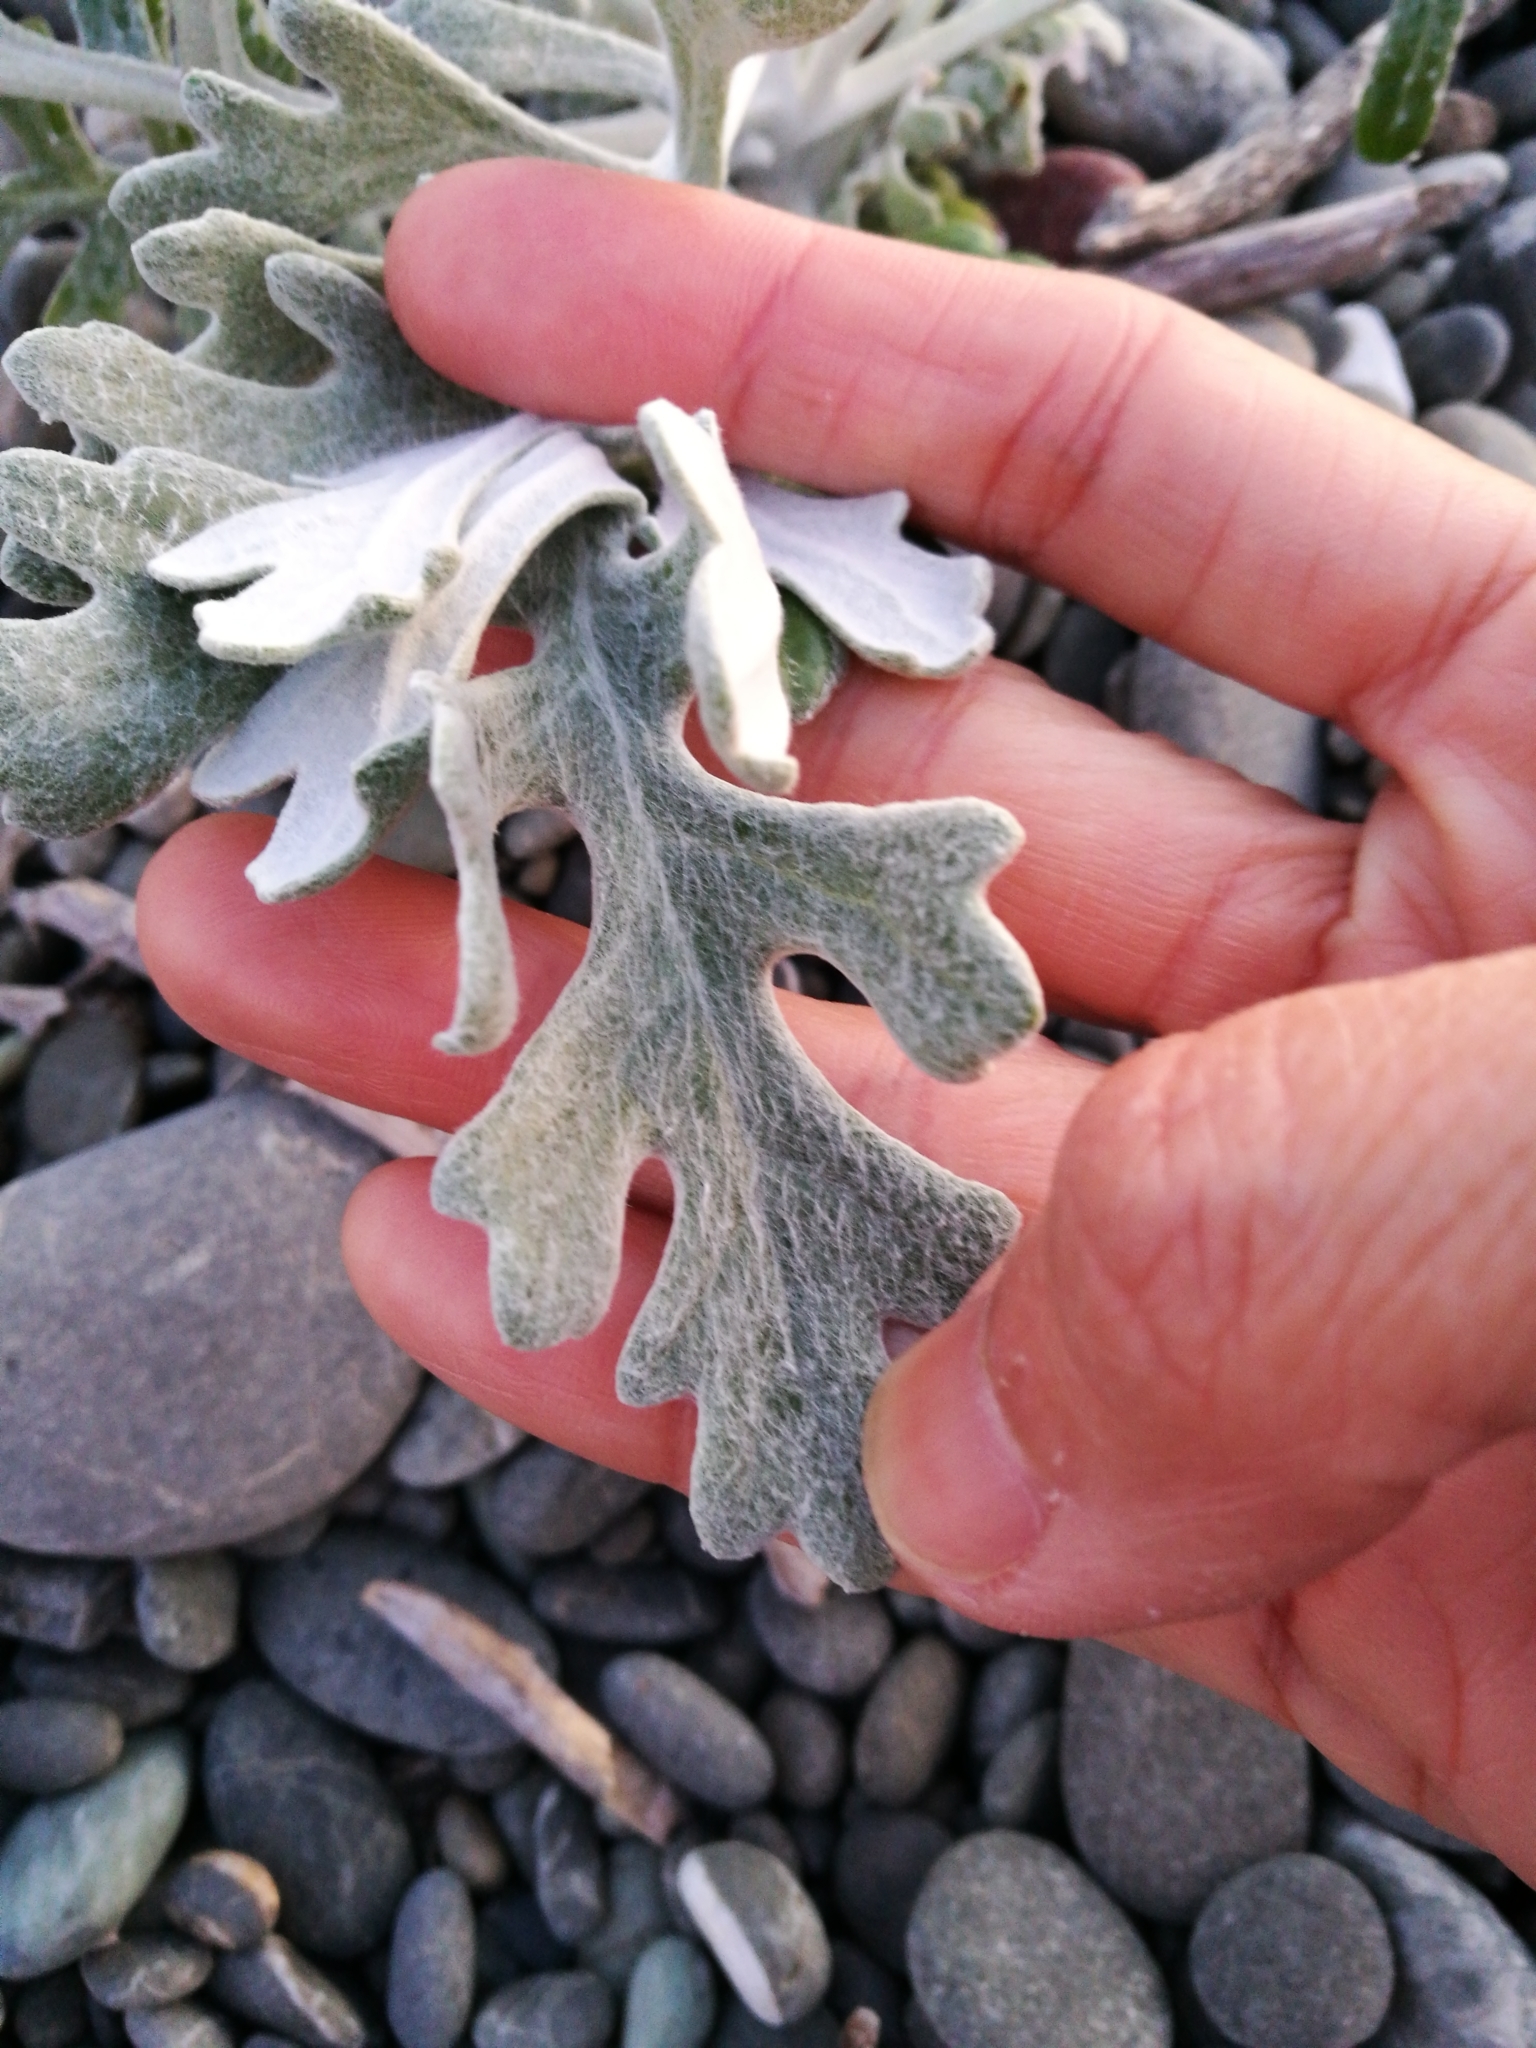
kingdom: Plantae
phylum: Tracheophyta
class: Magnoliopsida
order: Asterales
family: Asteraceae
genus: Jacobaea
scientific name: Jacobaea maritima
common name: Silver ragwort
